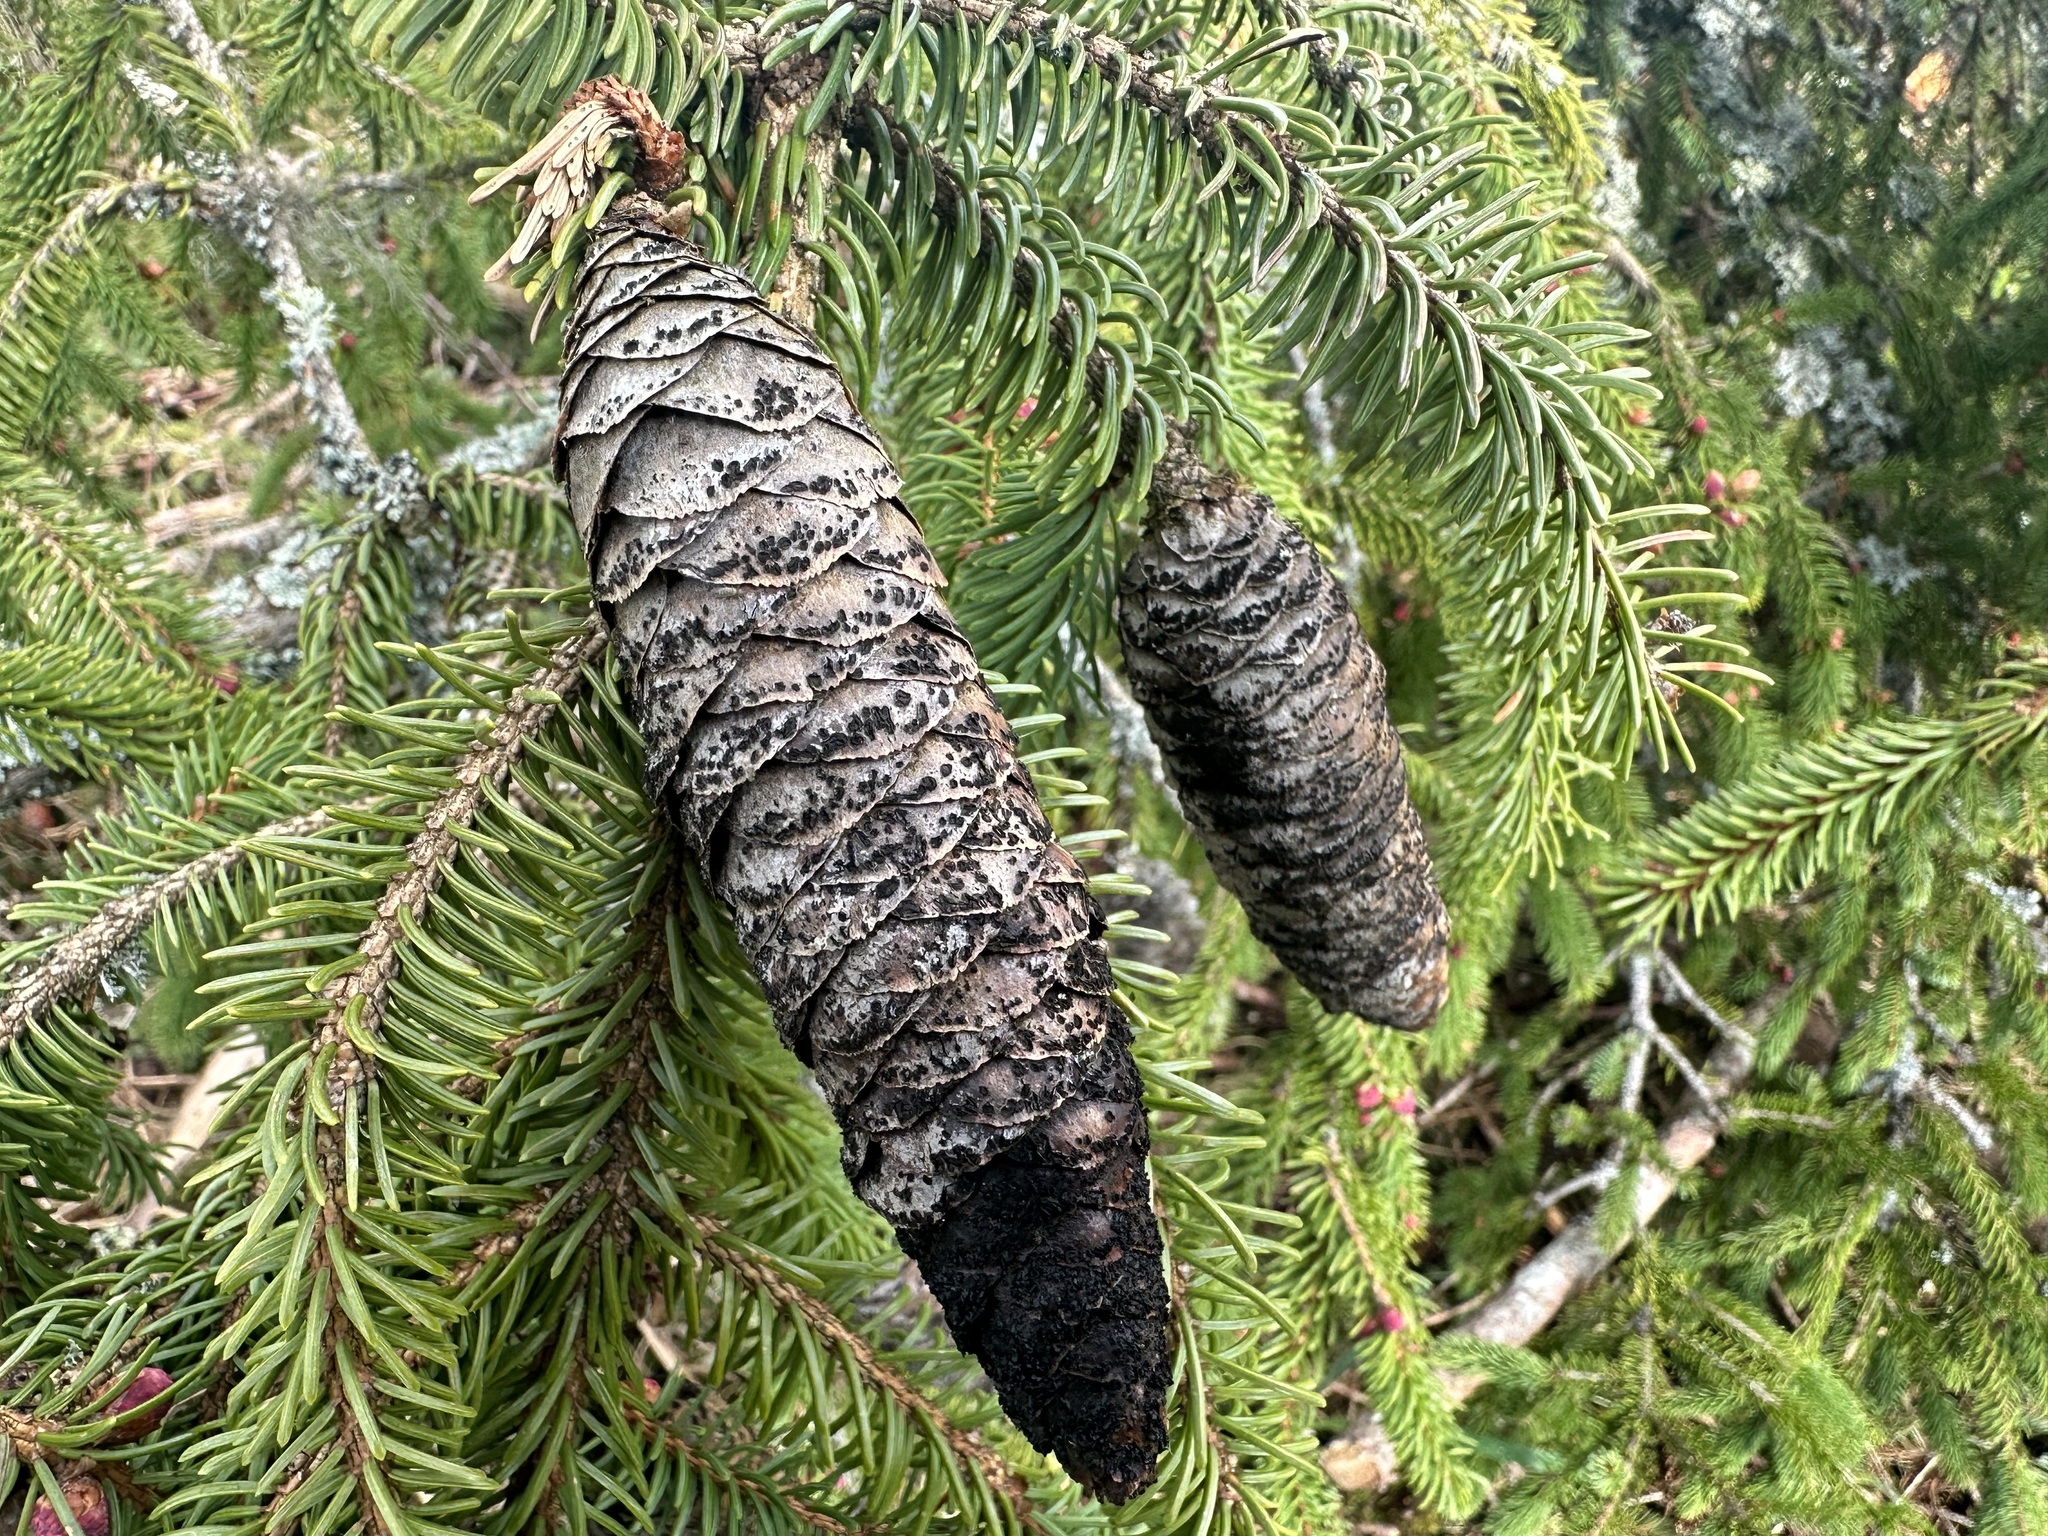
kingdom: Fungi
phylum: Ascomycota
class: Dothideomycetes
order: Pleosporales
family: Melanommataceae
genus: Phragmotrichum
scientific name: Phragmotrichum chailletii
